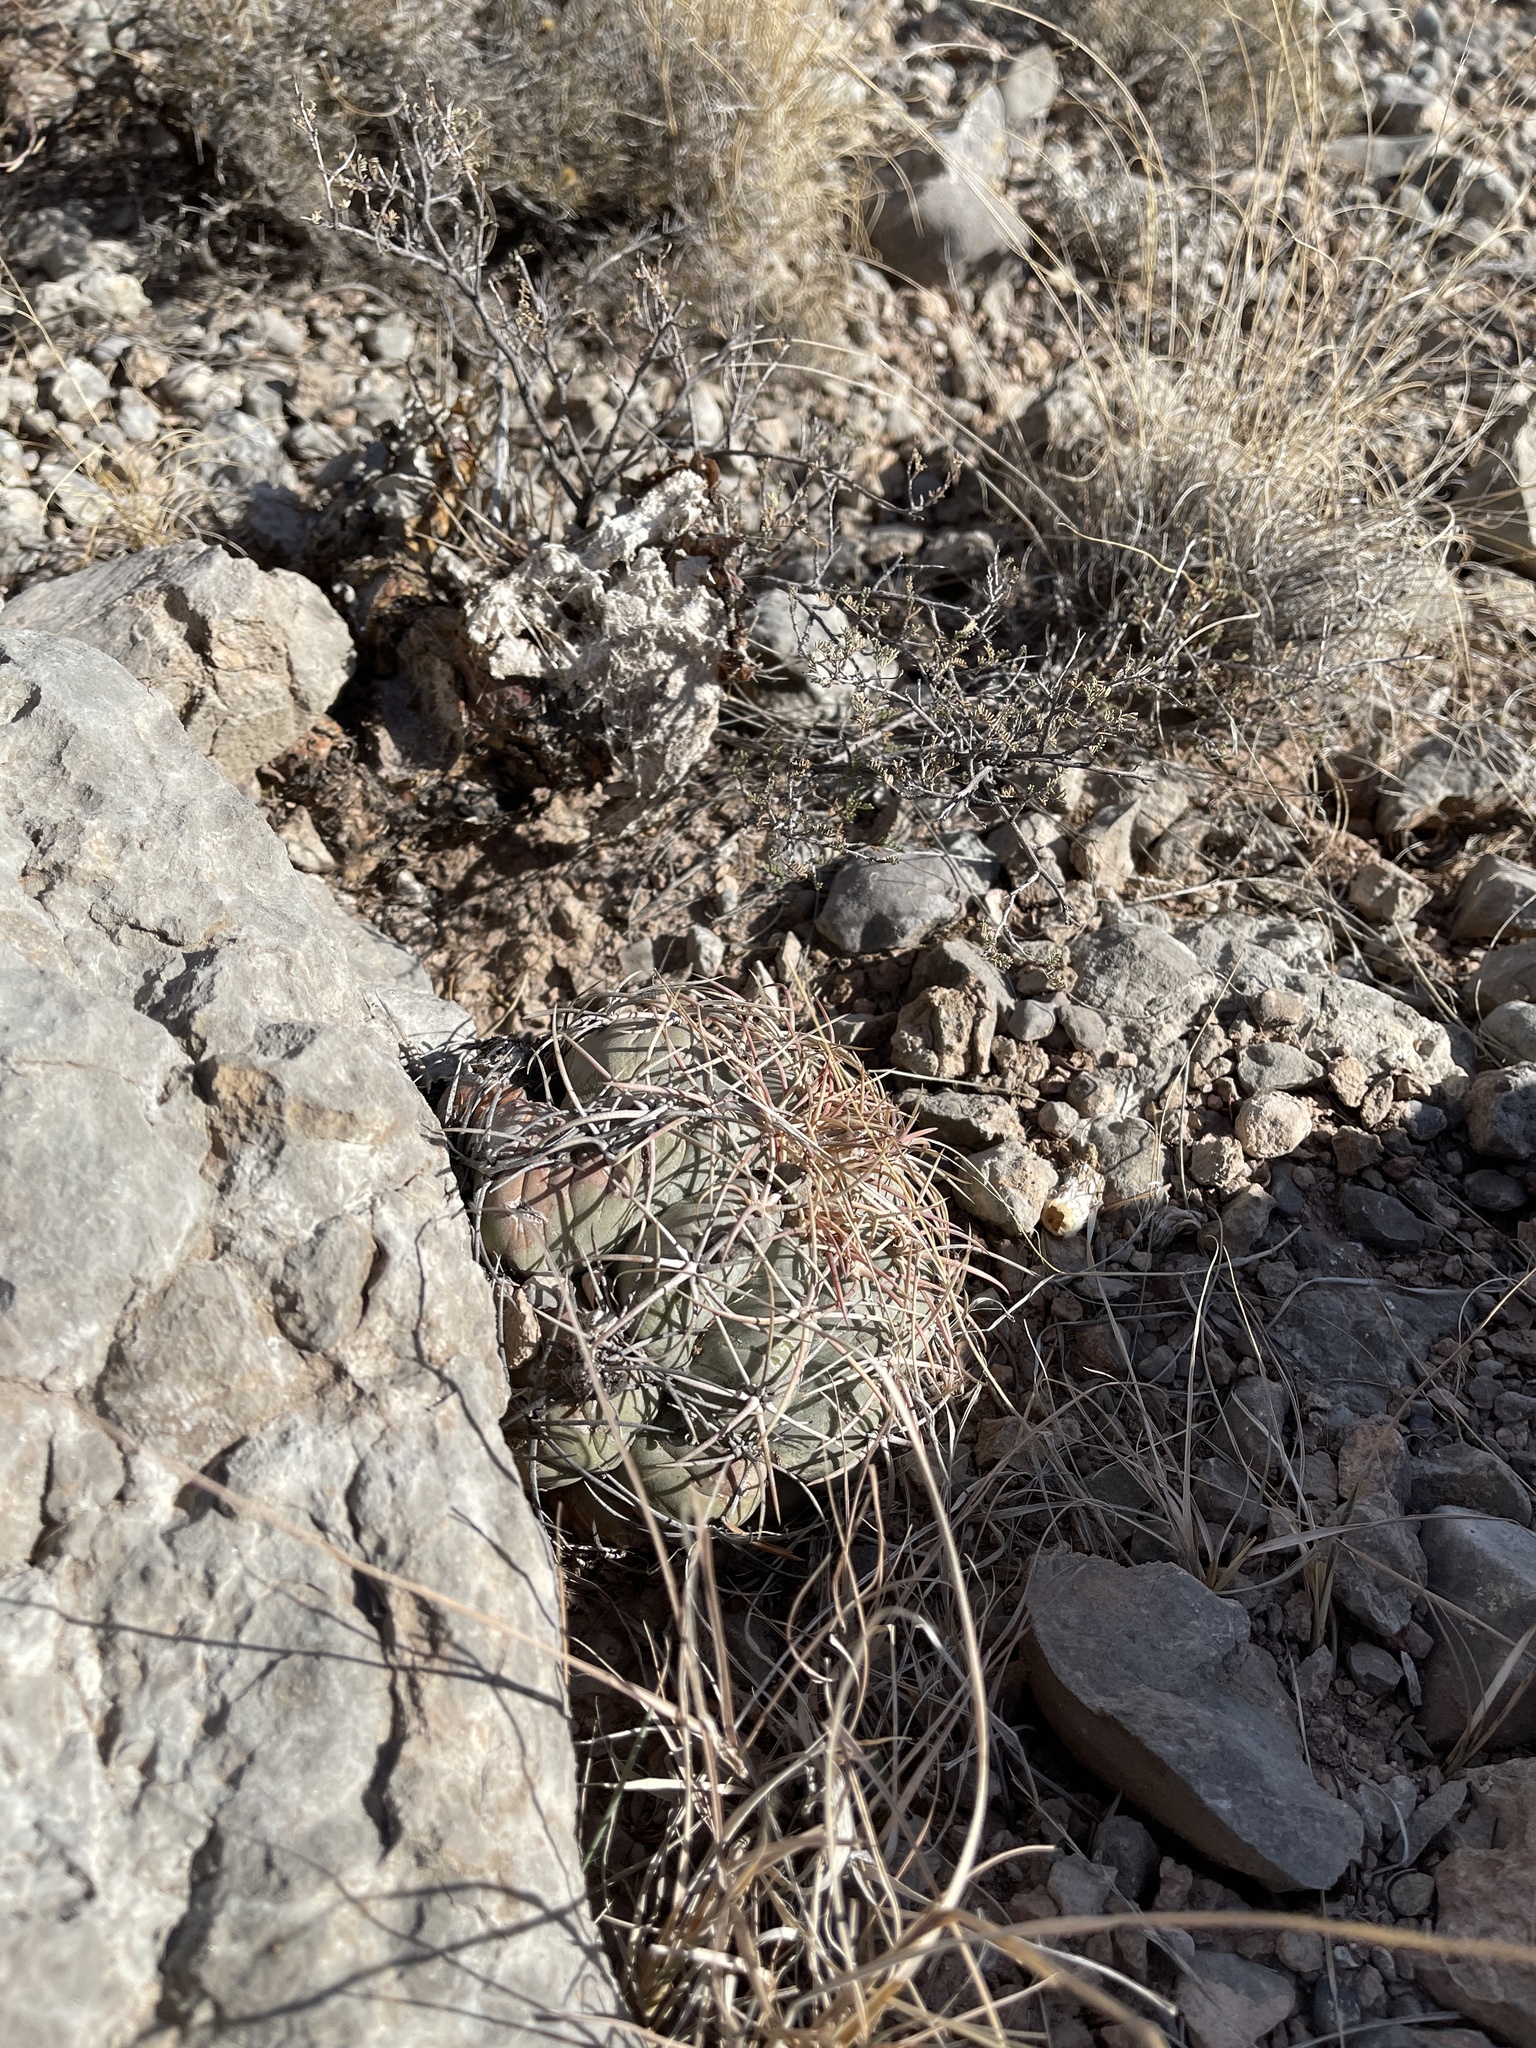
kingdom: Plantae
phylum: Tracheophyta
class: Magnoliopsida
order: Caryophyllales
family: Cactaceae
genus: Echinocactus
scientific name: Echinocactus horizonthalonius
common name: Devilshead
